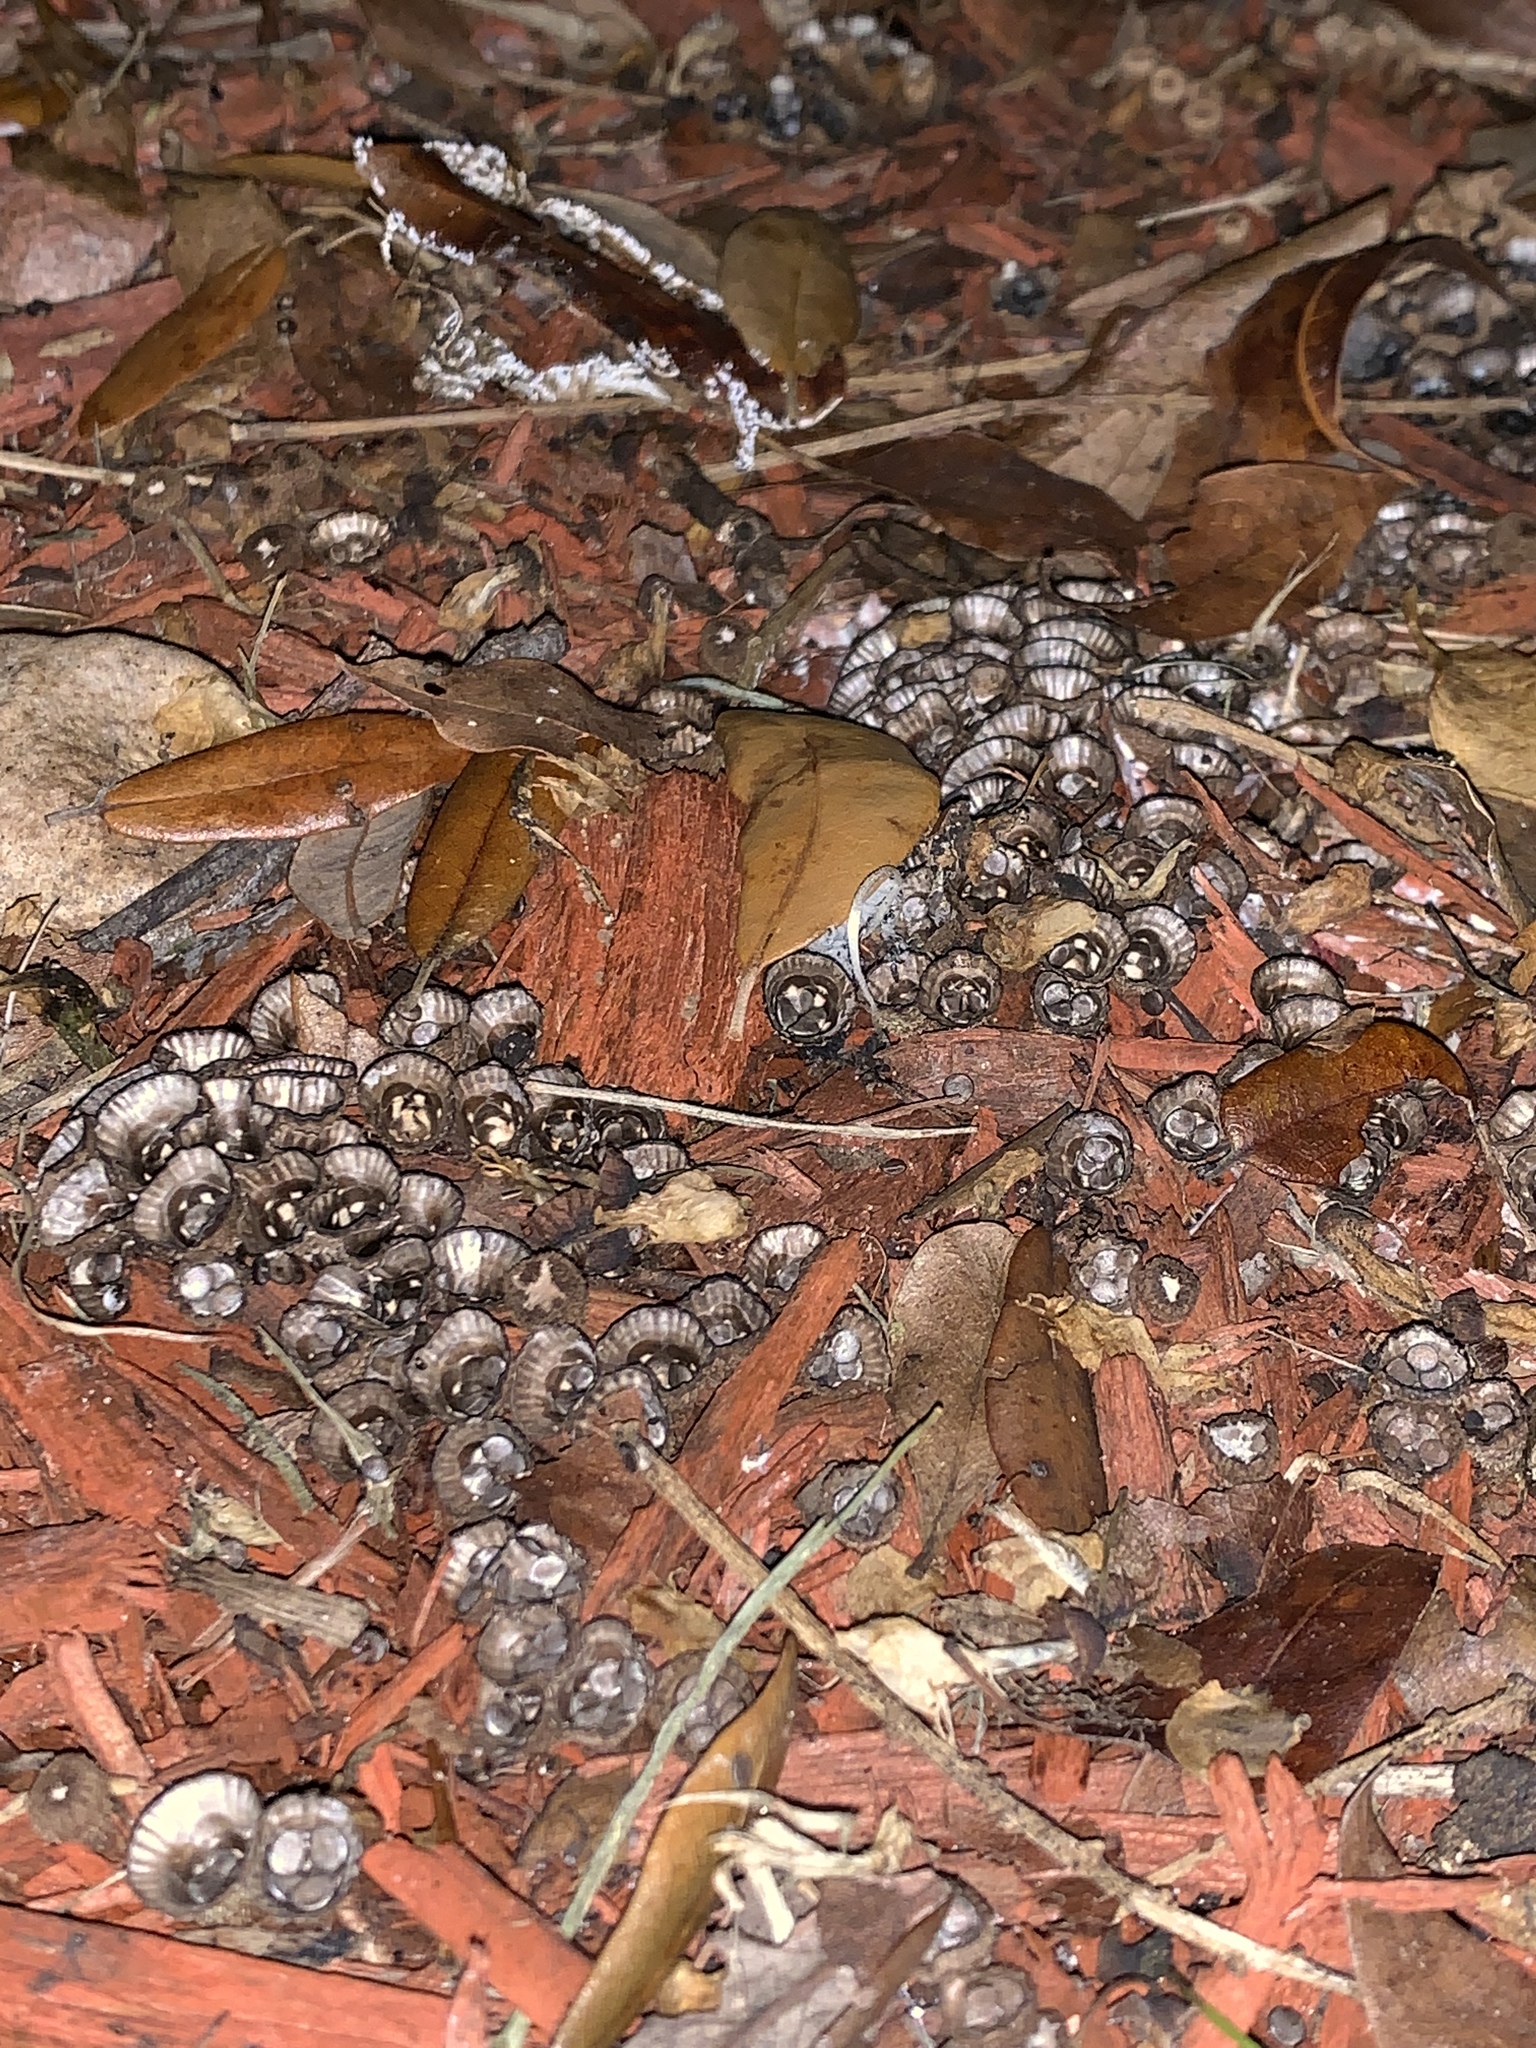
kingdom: Fungi
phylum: Basidiomycota
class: Agaricomycetes
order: Agaricales
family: Agaricaceae
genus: Cyathus
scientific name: Cyathus striatus
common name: Fluted bird's nest
